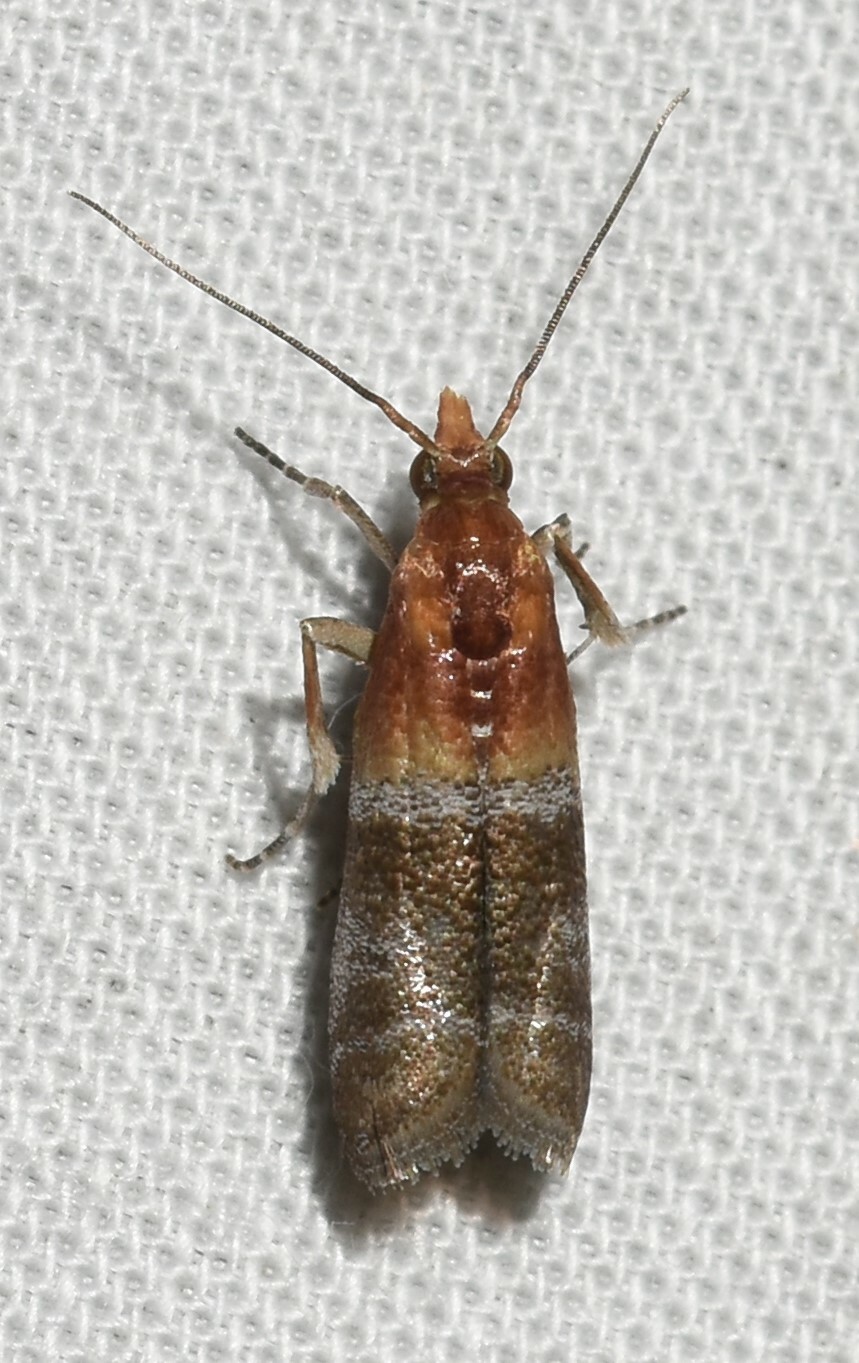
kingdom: Animalia
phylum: Arthropoda
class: Insecta
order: Lepidoptera
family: Pyralidae
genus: Moodna
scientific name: Moodna pallidostrinella
